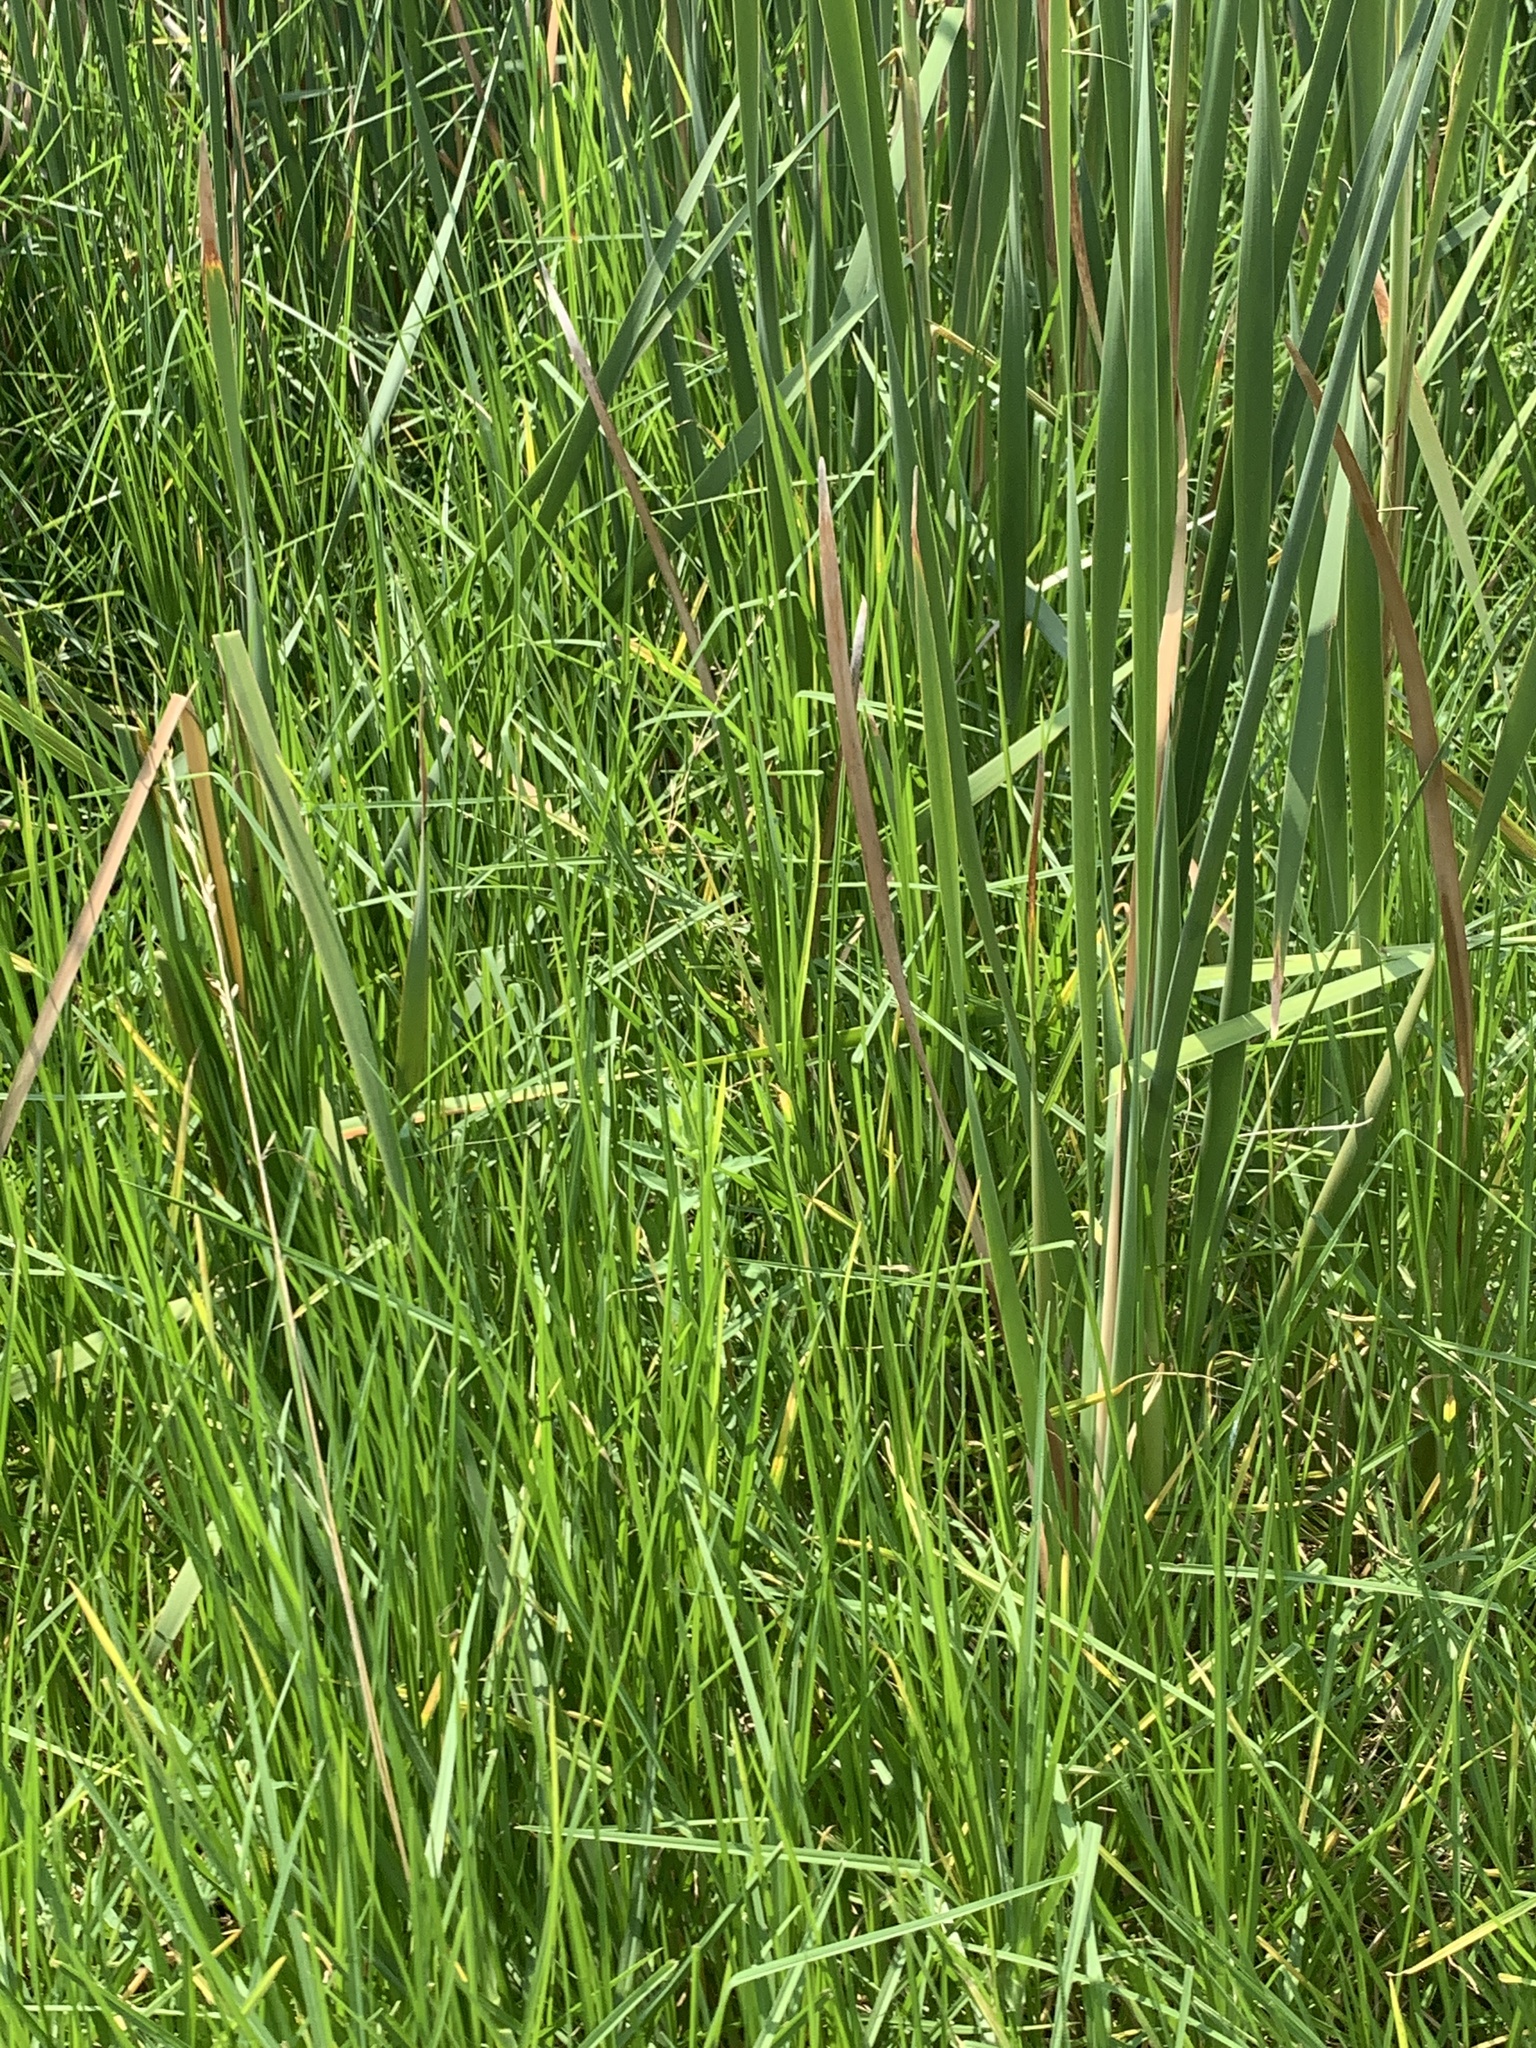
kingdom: Plantae
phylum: Tracheophyta
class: Liliopsida
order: Poales
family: Typhaceae
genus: Typha
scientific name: Typha capensis
